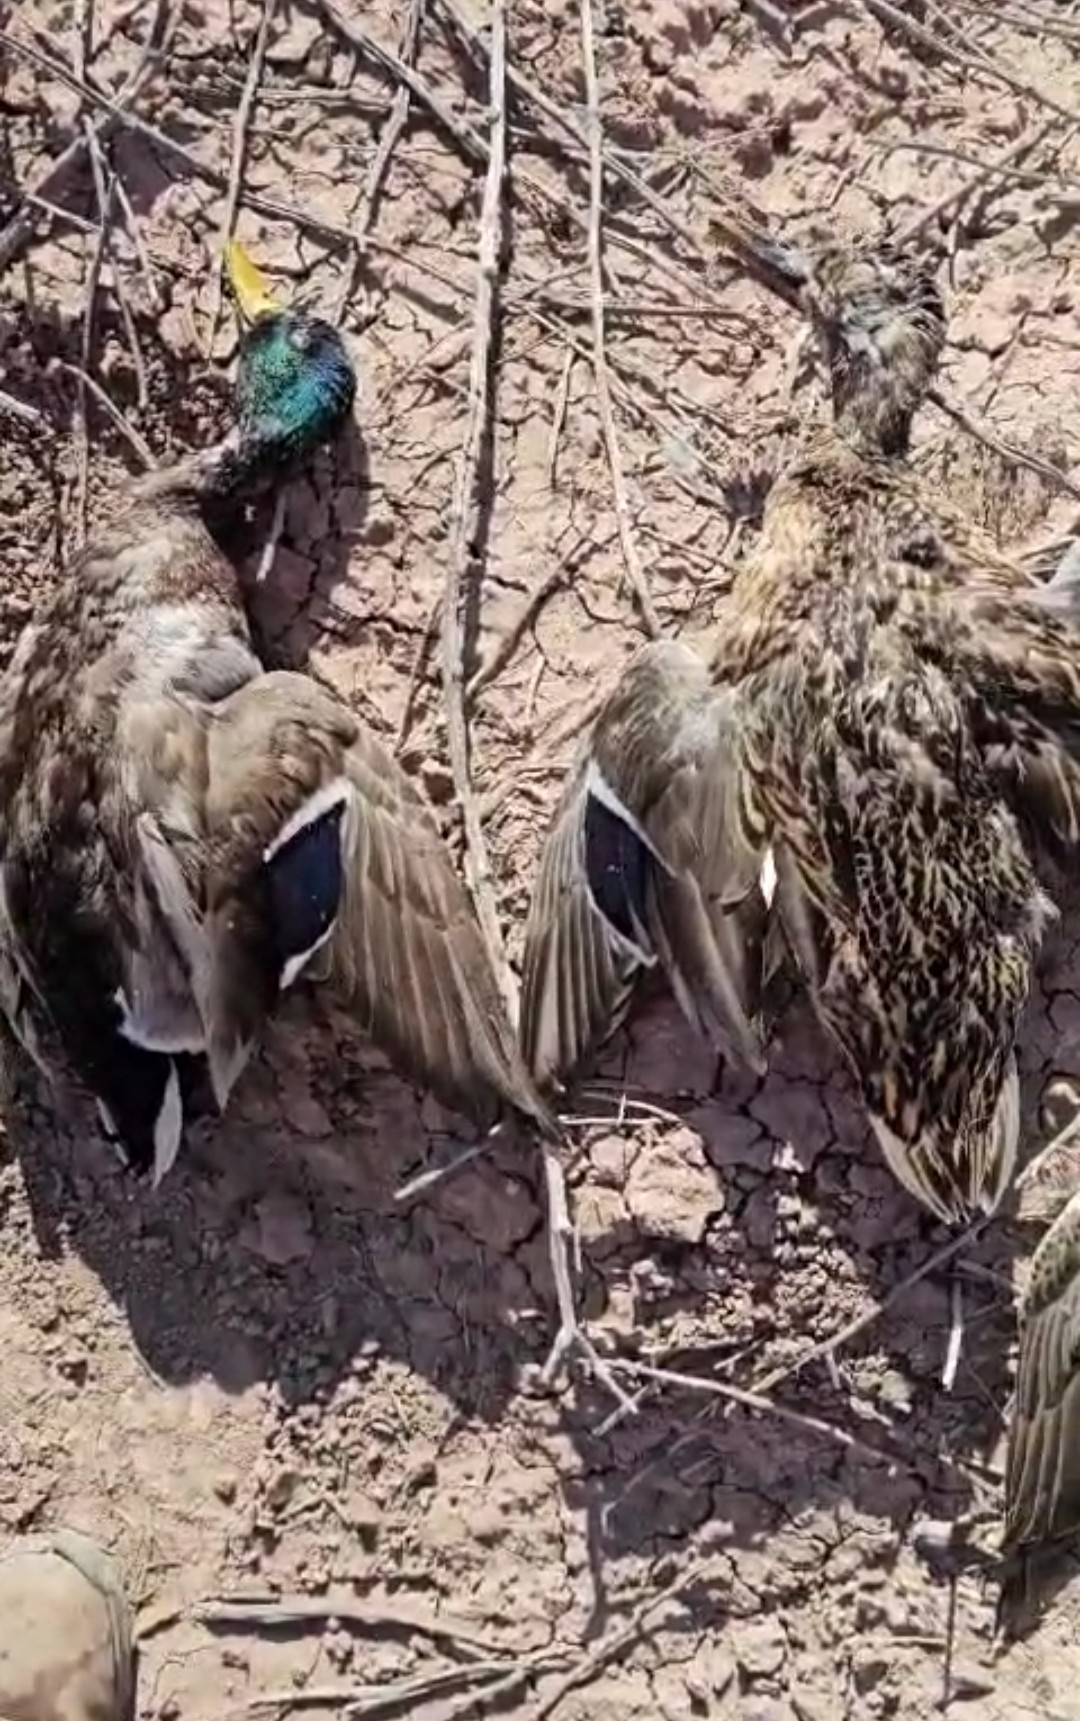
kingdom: Animalia
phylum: Chordata
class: Aves
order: Anseriformes
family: Anatidae
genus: Anas
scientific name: Anas platyrhynchos
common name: Mallard
